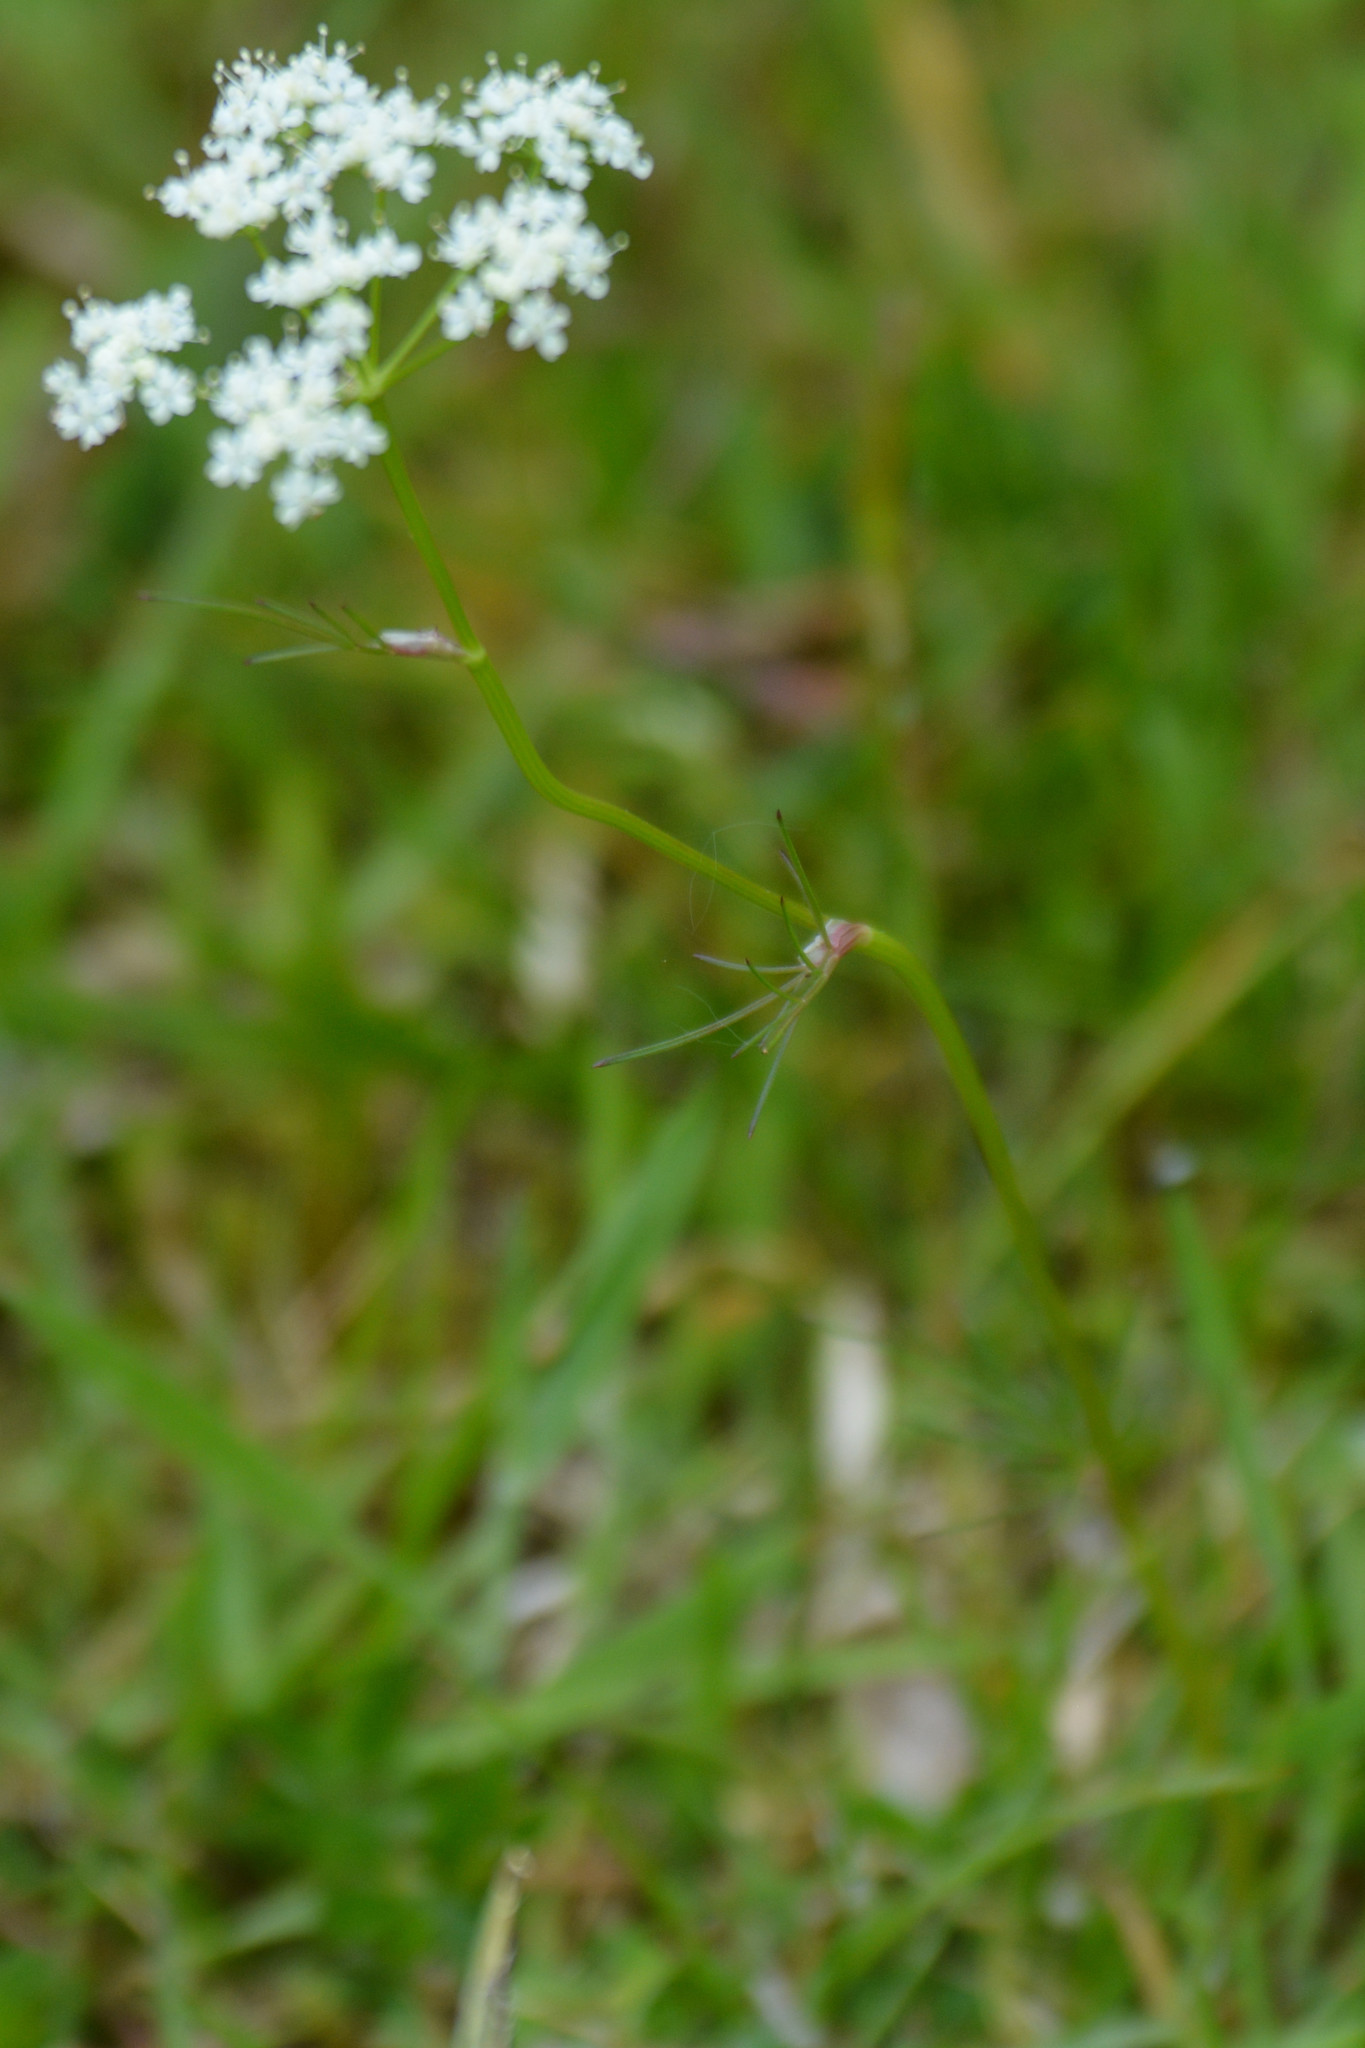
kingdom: Plantae
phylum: Tracheophyta
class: Magnoliopsida
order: Apiales
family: Apiaceae
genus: Conopodium
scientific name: Conopodium majus
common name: Pignut
